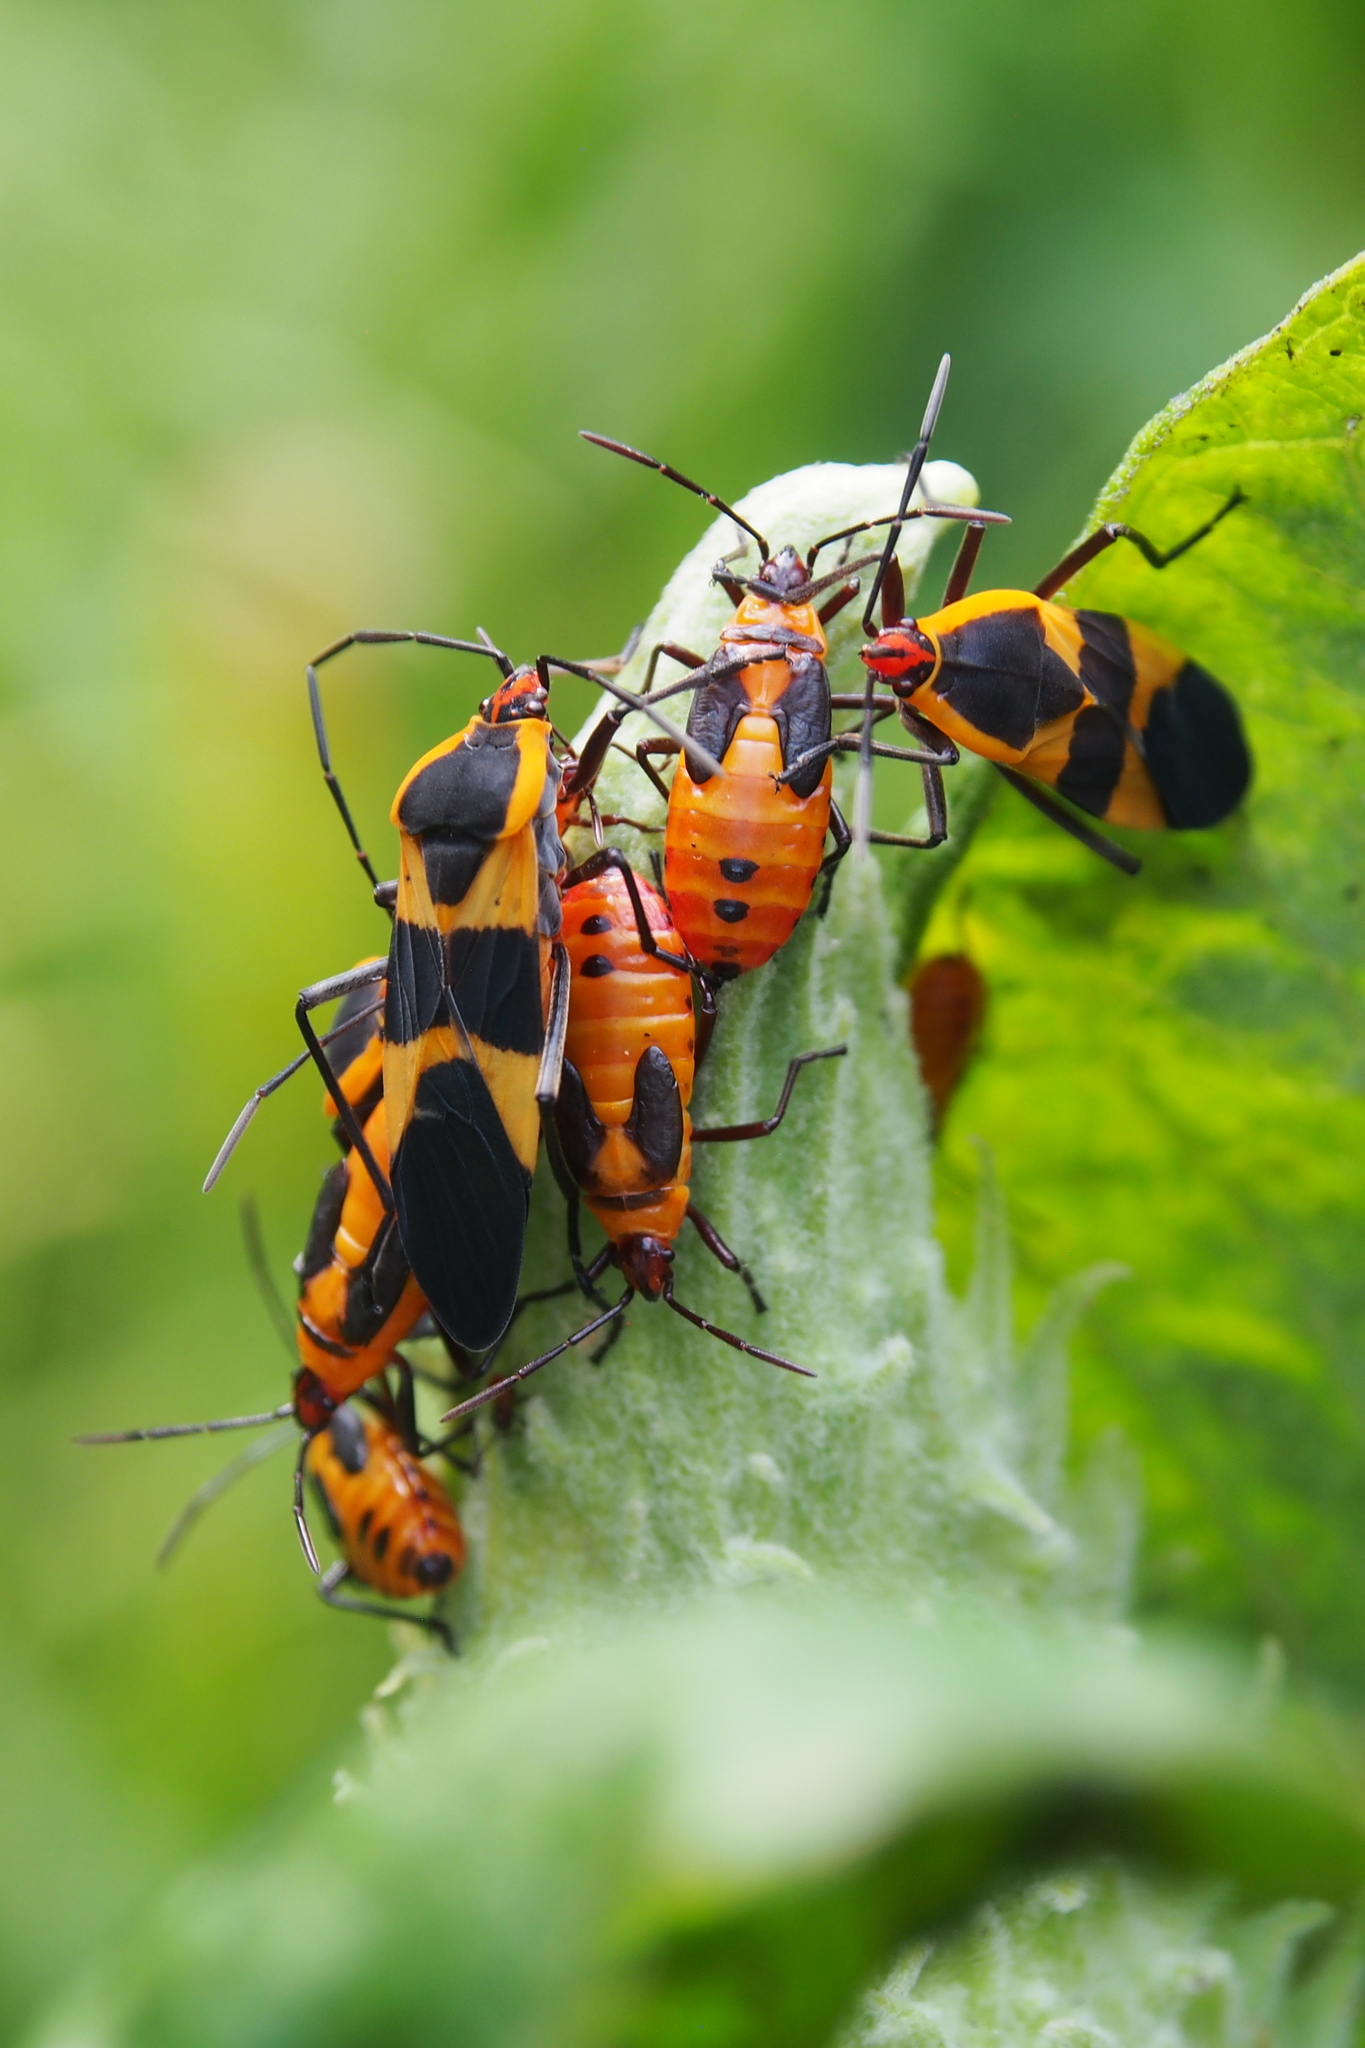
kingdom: Animalia
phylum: Arthropoda
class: Insecta
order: Hemiptera
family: Lygaeidae
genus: Oncopeltus
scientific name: Oncopeltus fasciatus
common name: Large milkweed bug
